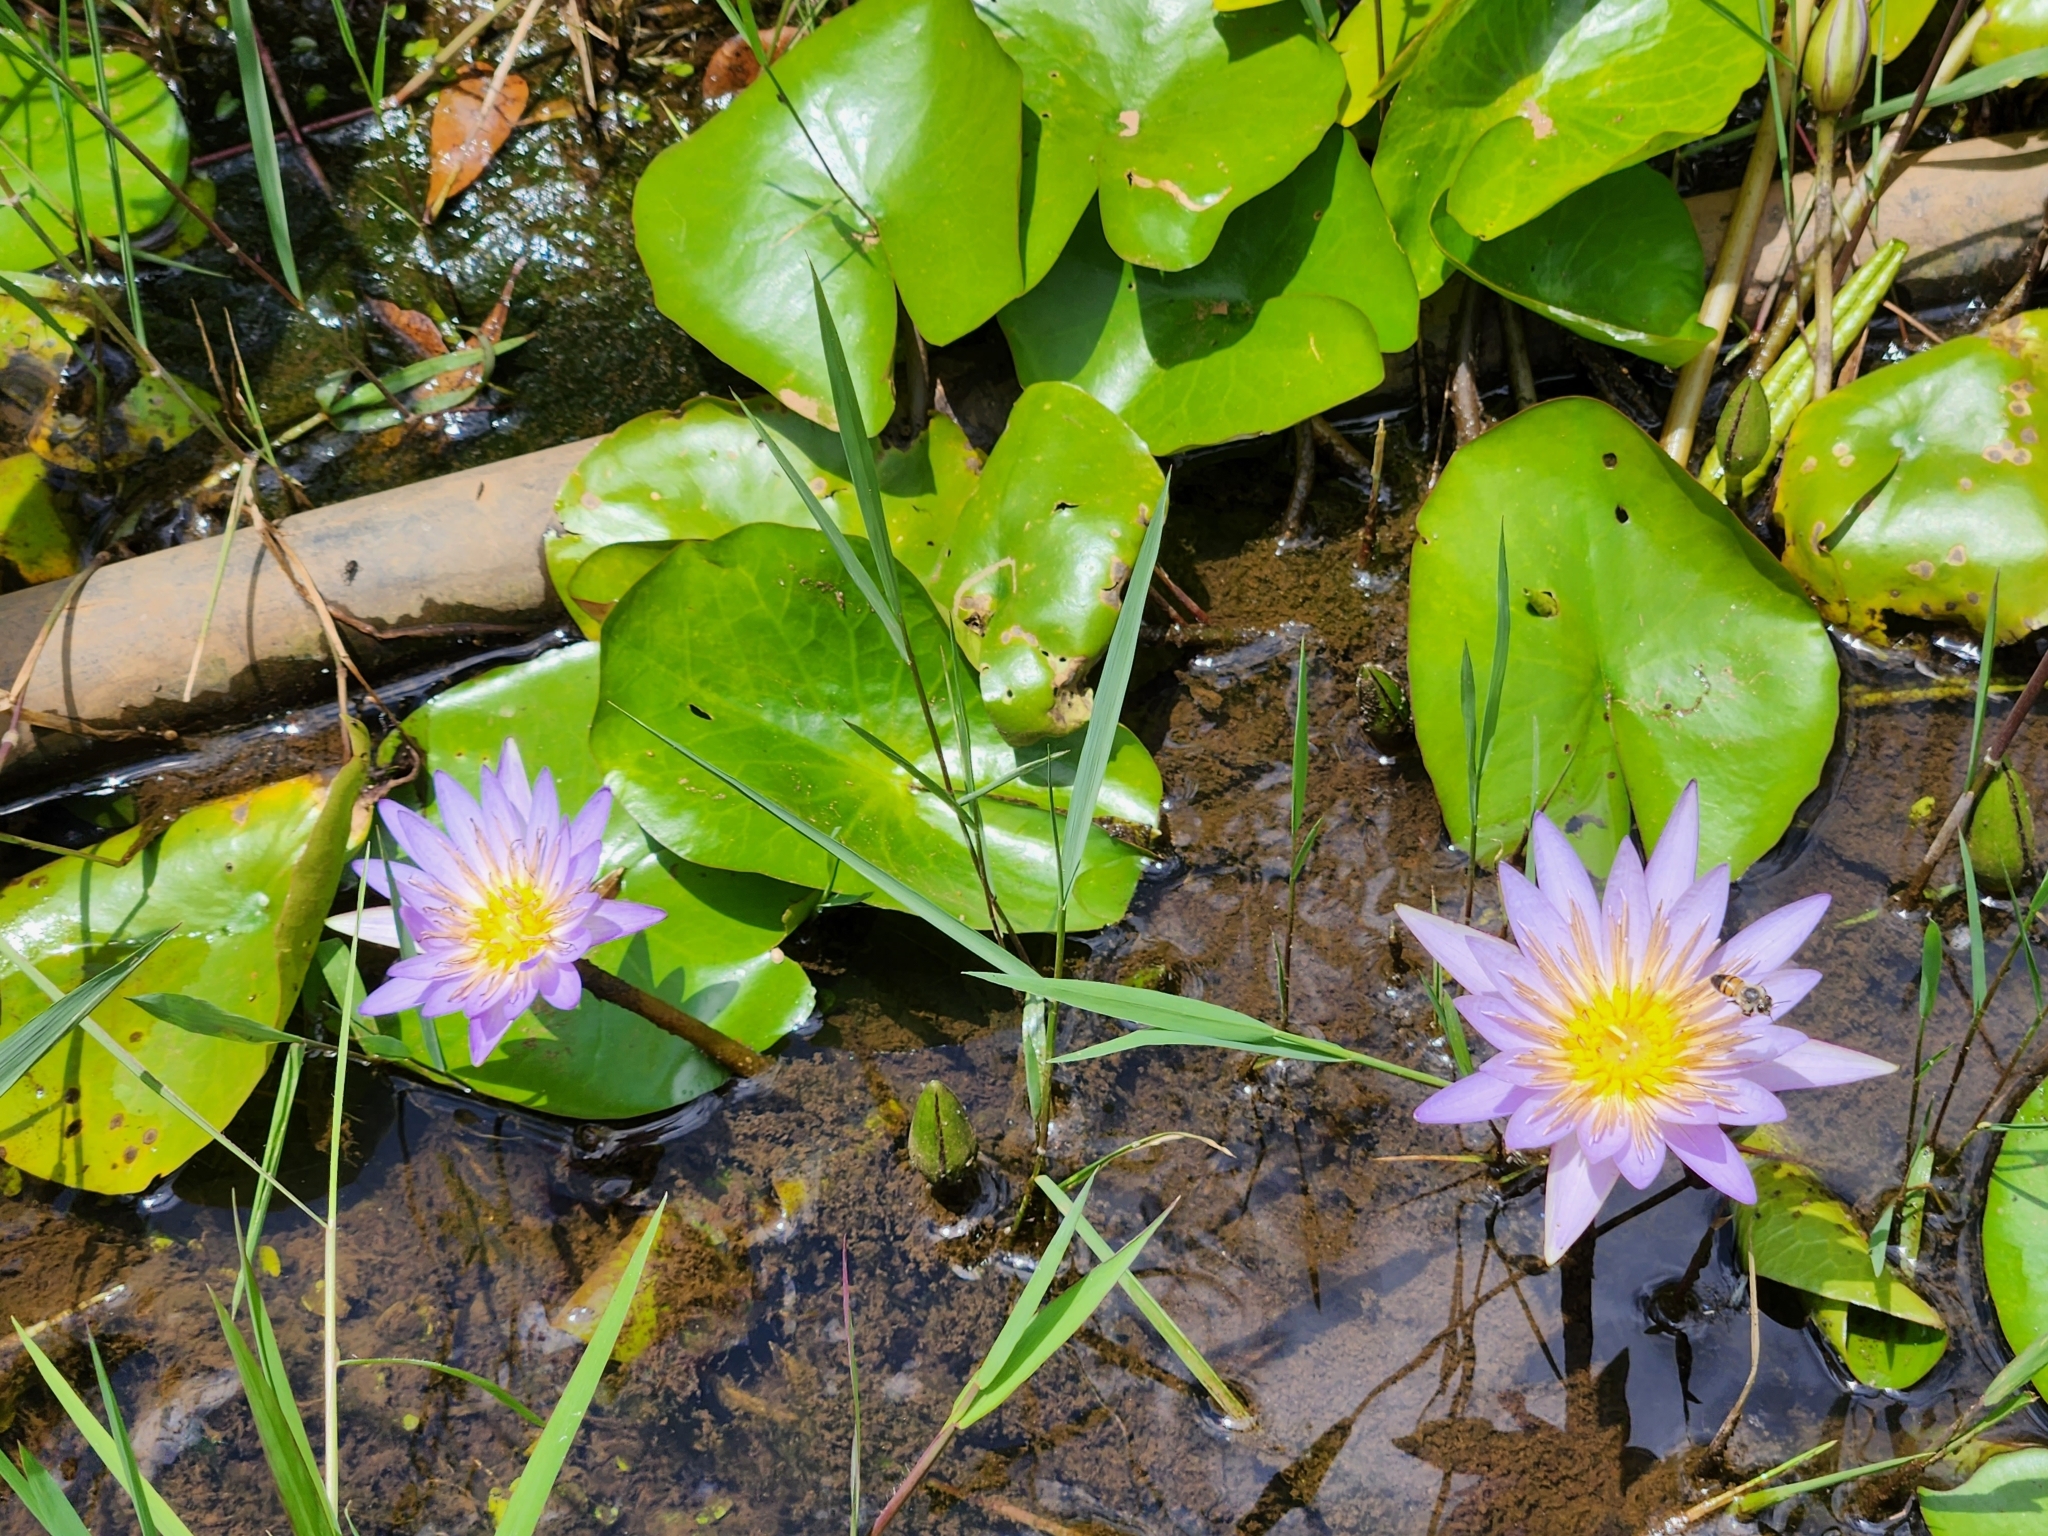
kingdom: Plantae
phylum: Tracheophyta
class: Magnoliopsida
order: Nymphaeales
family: Nymphaeaceae
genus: Nymphaea
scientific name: Nymphaea nouchali
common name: Blue lotus
